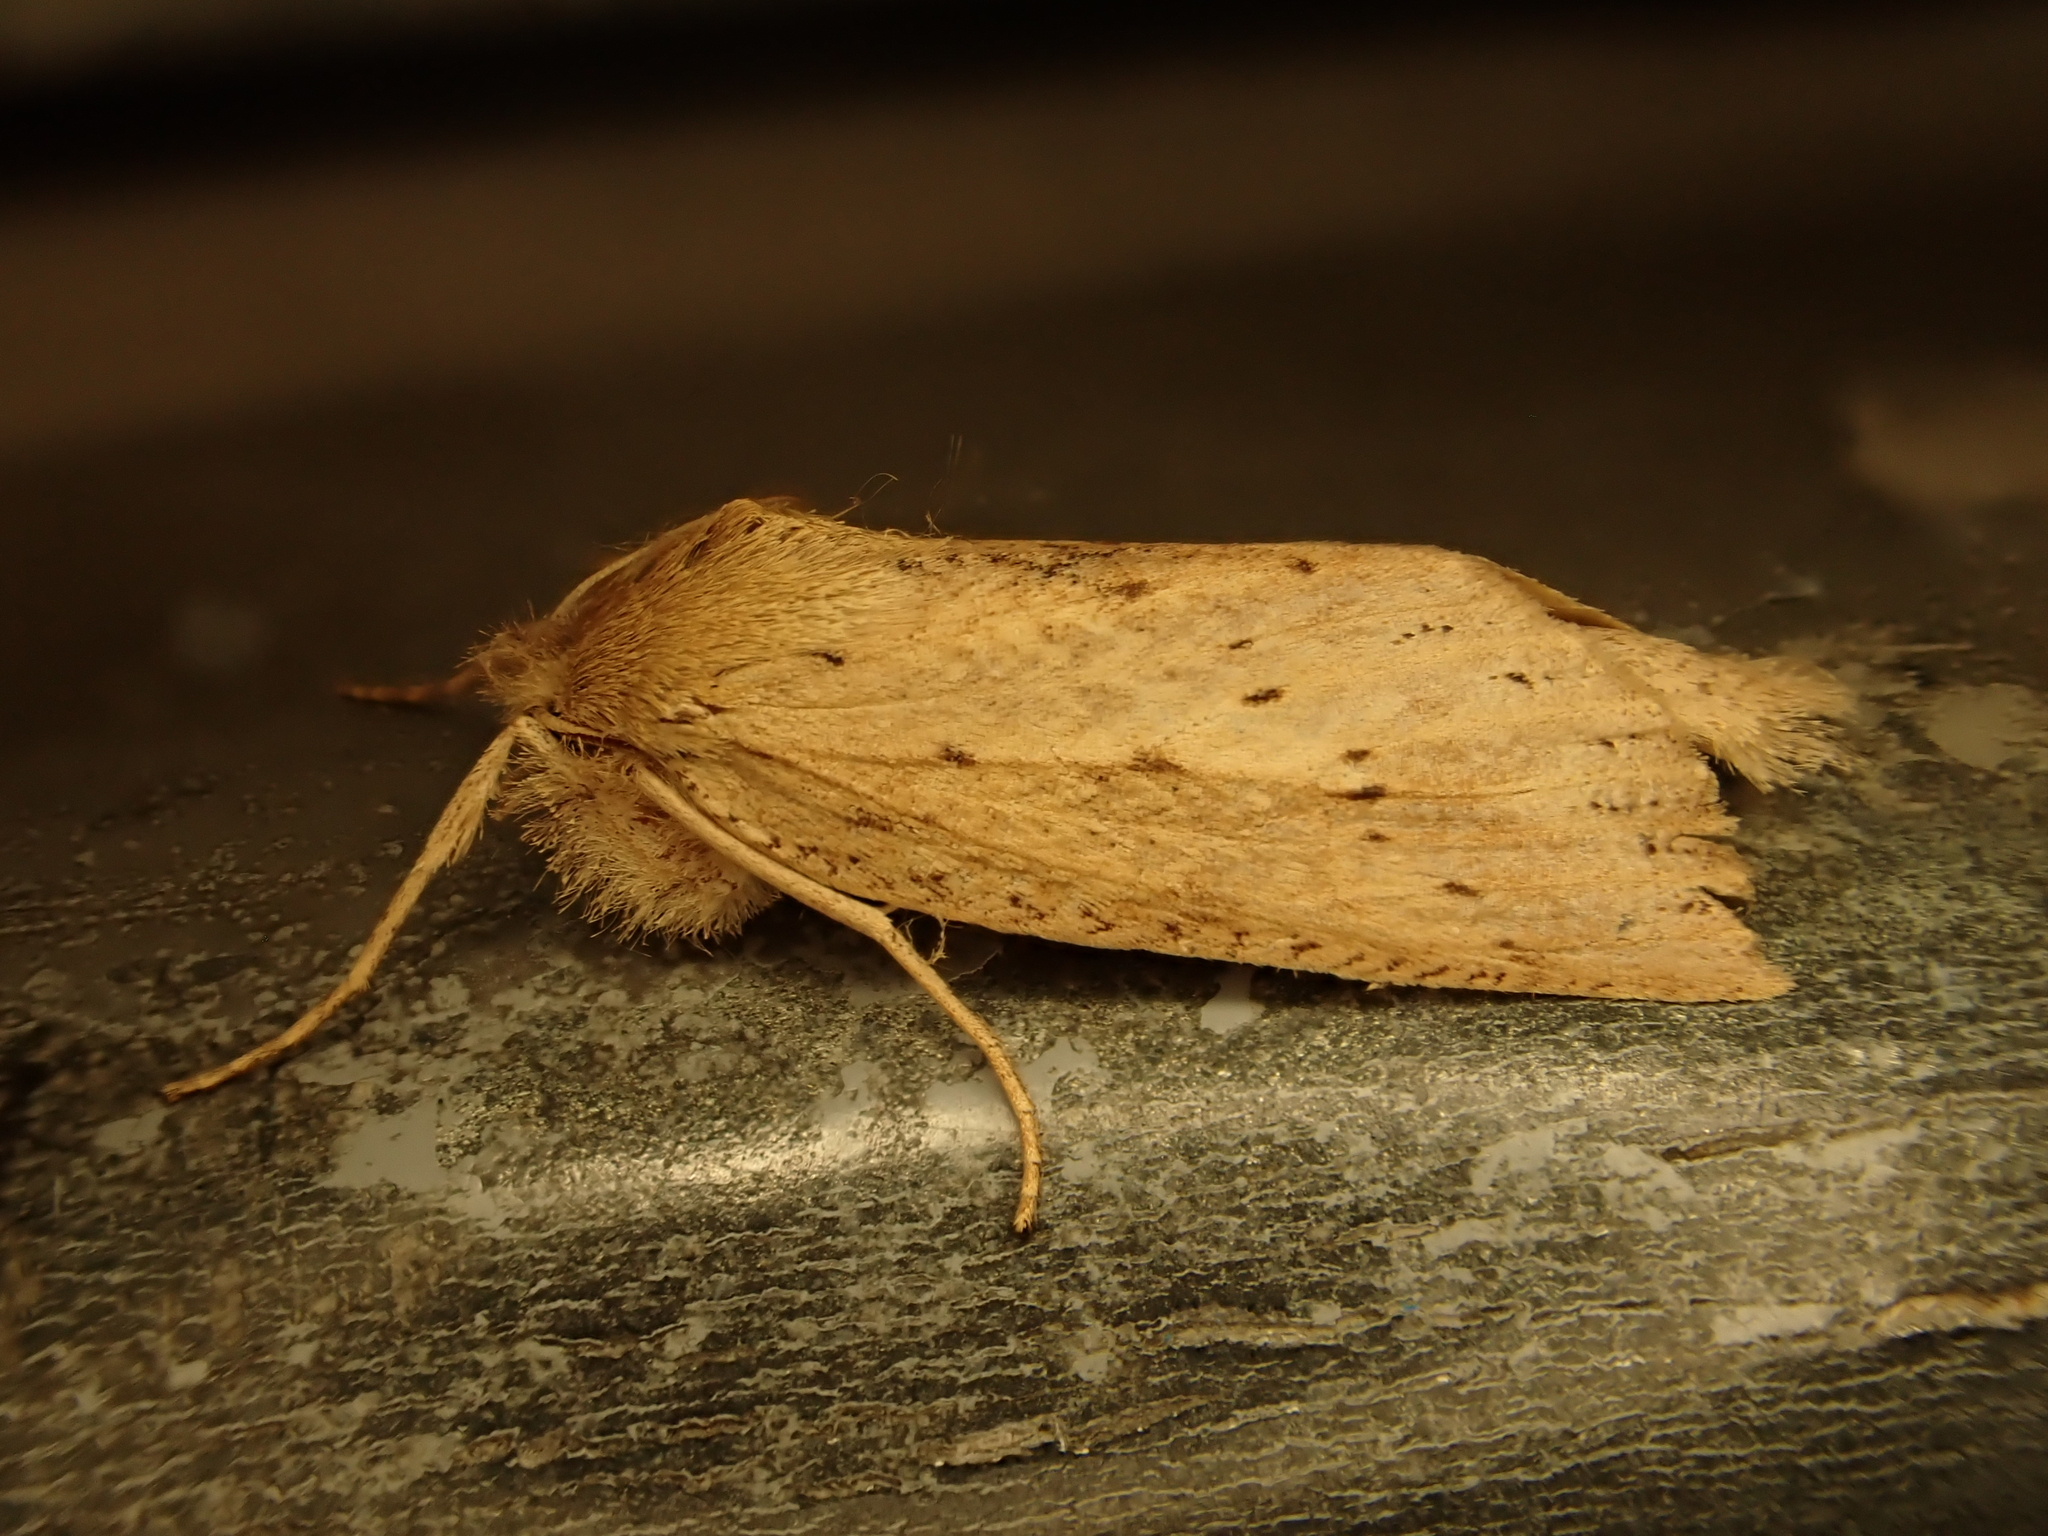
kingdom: Animalia
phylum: Arthropoda
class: Insecta
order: Lepidoptera
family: Geometridae
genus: Declana
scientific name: Declana leptomera
